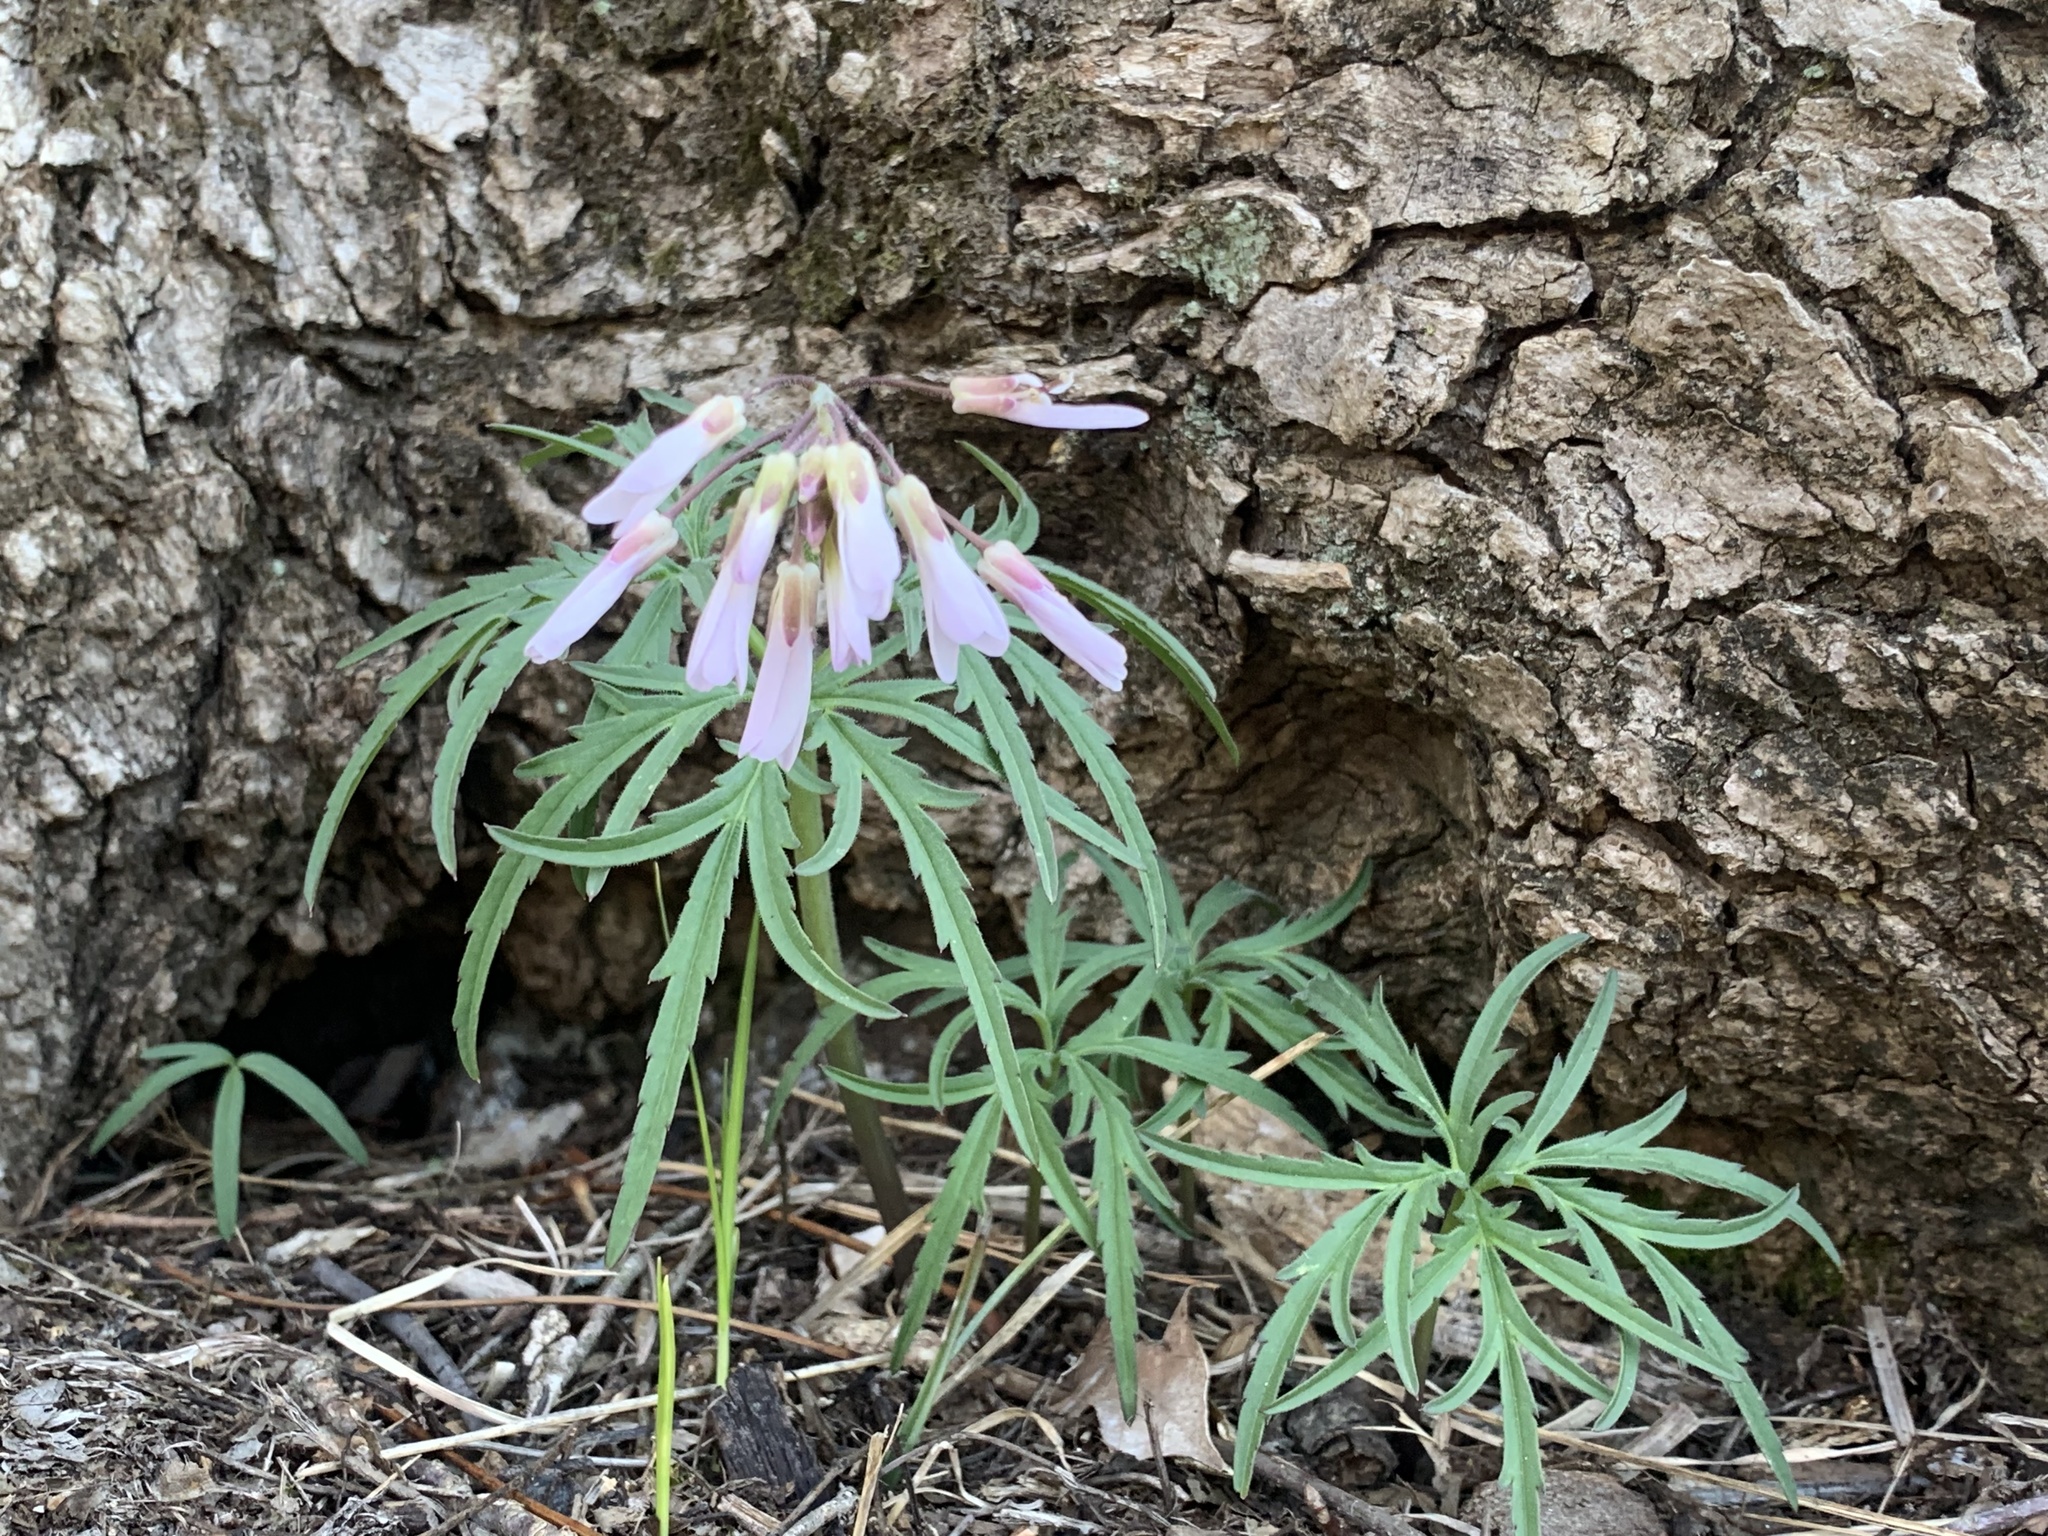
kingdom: Plantae
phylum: Tracheophyta
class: Magnoliopsida
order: Brassicales
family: Brassicaceae
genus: Cardamine
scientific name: Cardamine concatenata
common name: Cut-leaf toothcup
